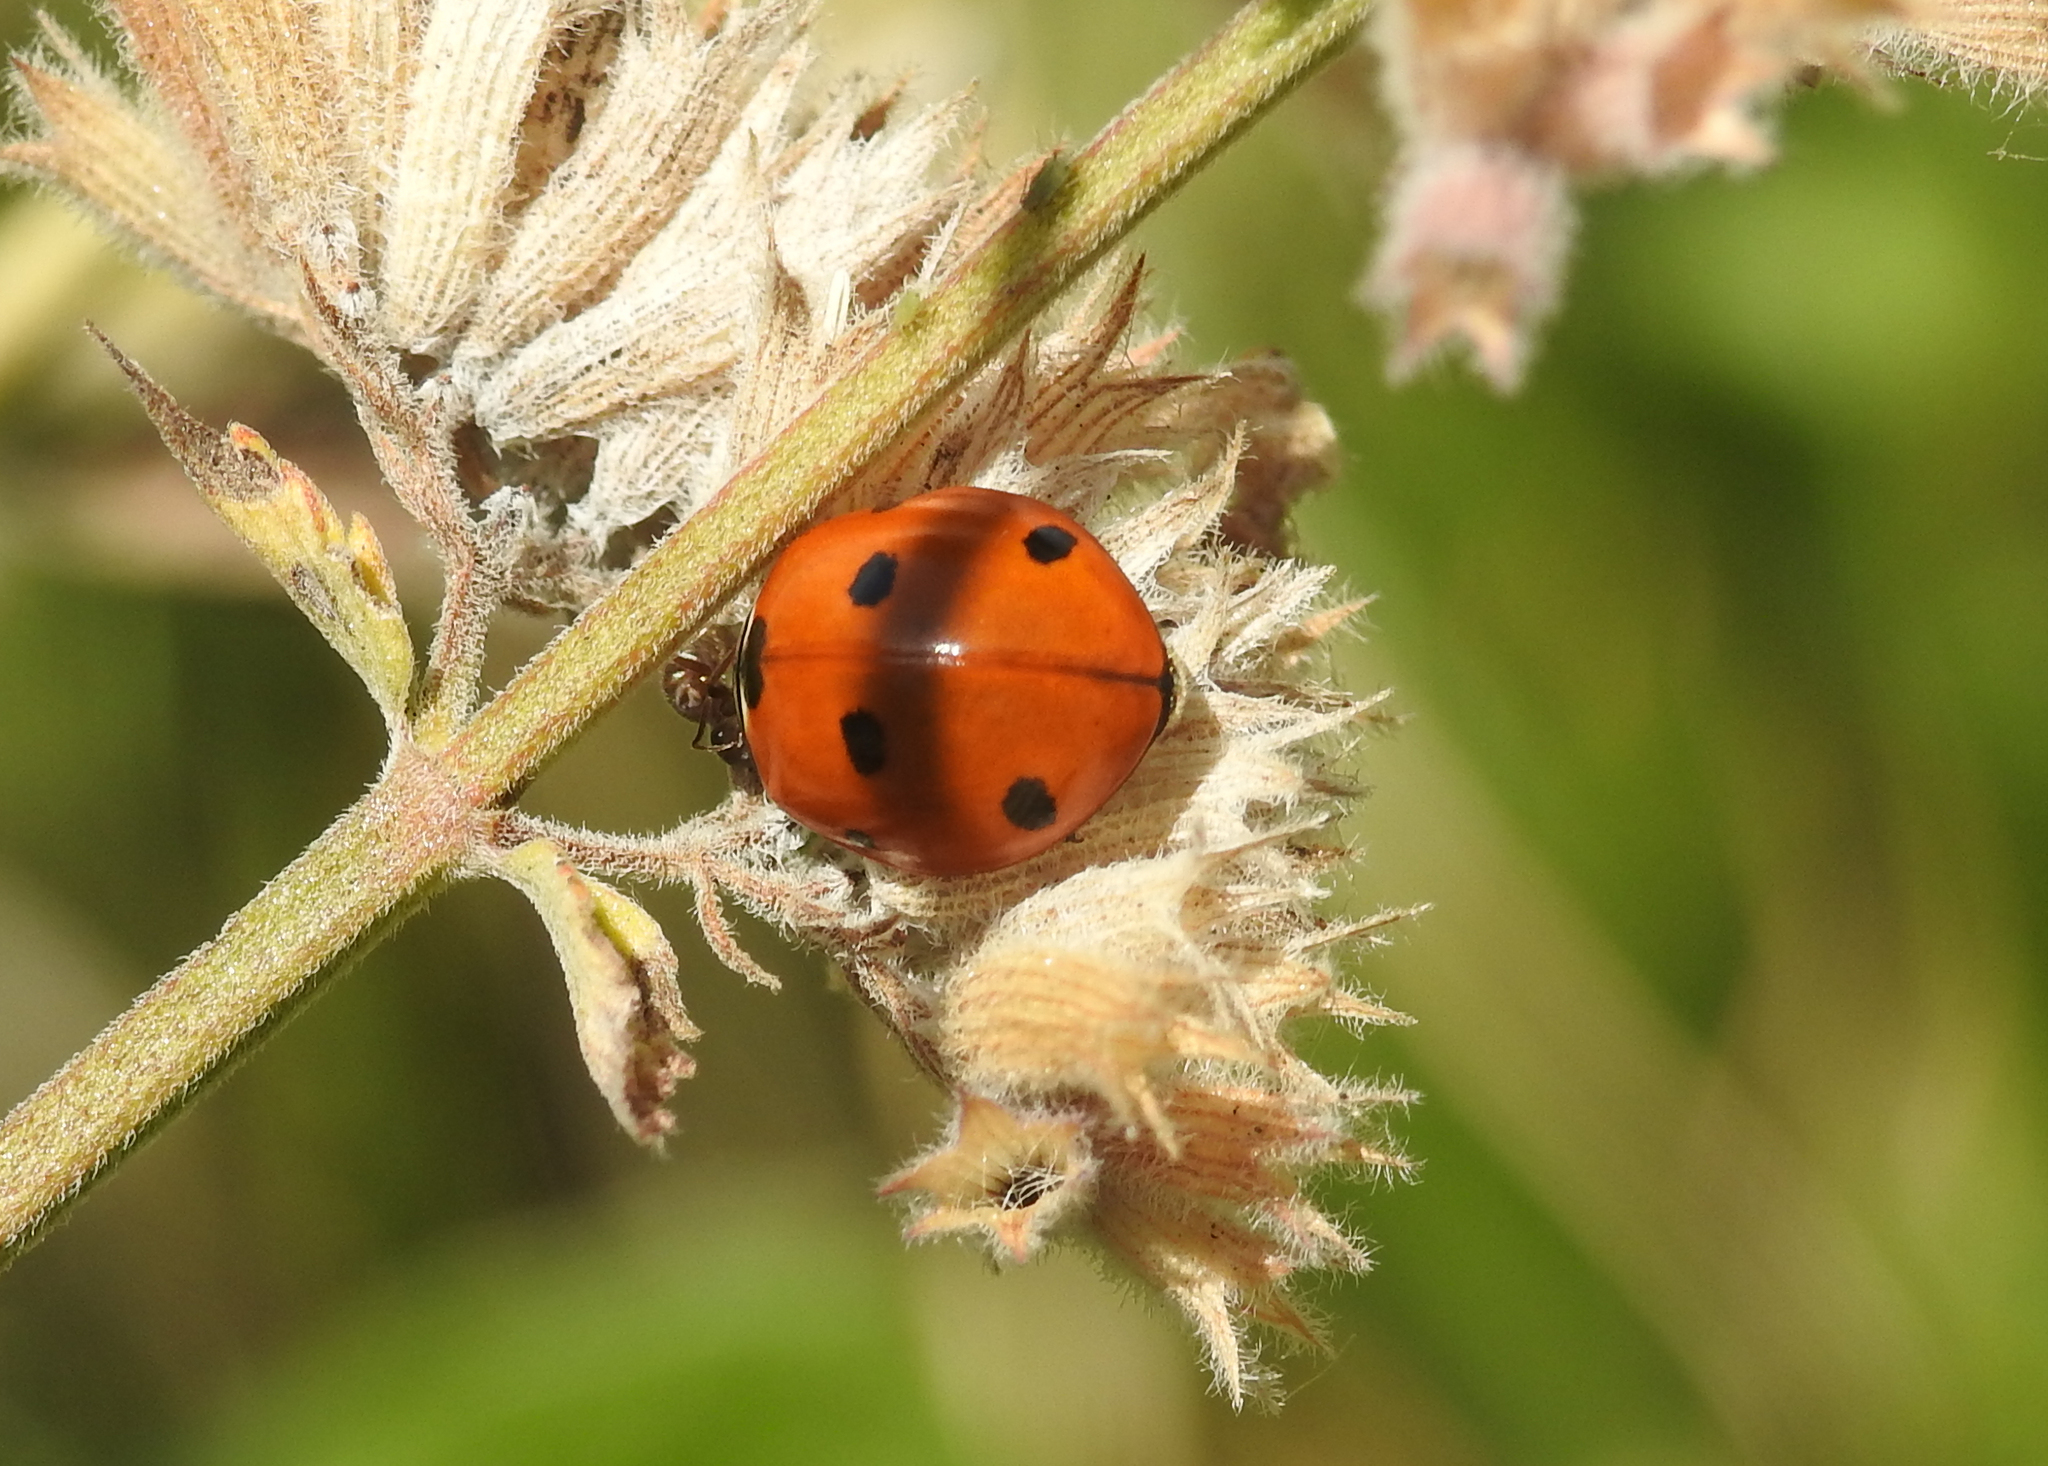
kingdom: Animalia
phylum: Arthropoda
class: Insecta
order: Coleoptera
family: Coccinellidae
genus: Coccinella
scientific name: Coccinella septempunctata
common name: Sevenspotted lady beetle
